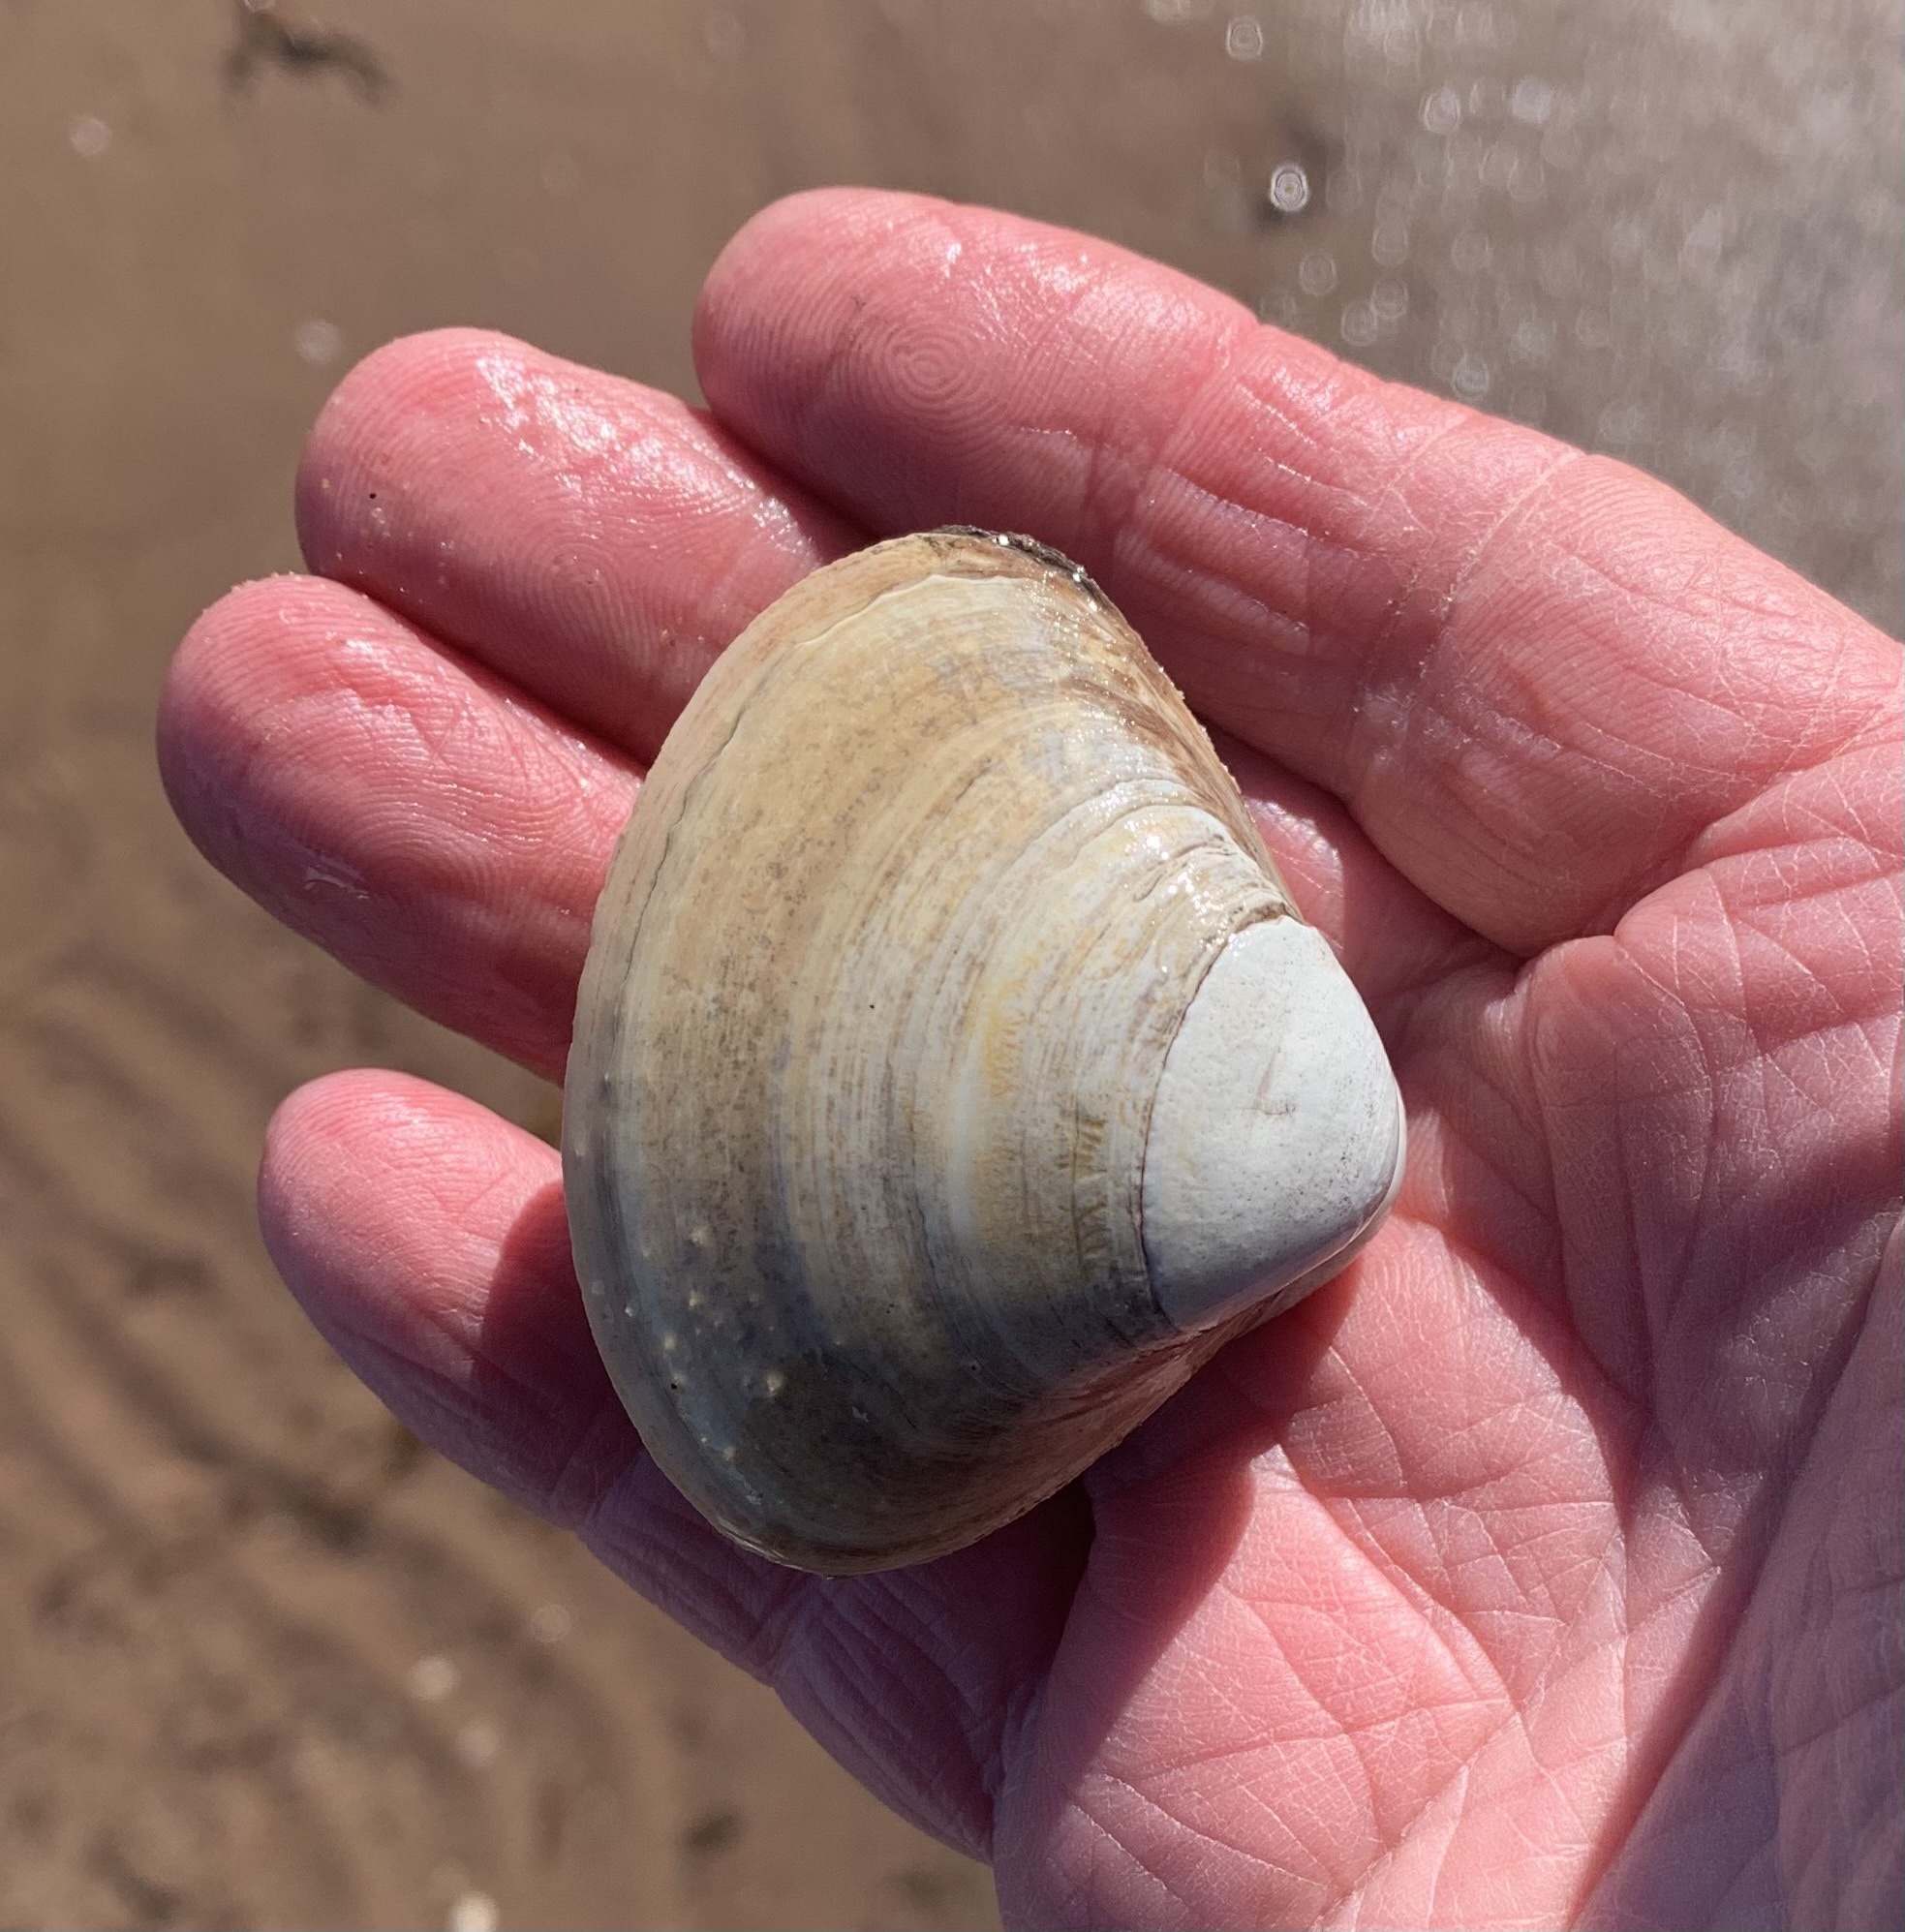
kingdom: Animalia
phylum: Mollusca
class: Bivalvia
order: Venerida
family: Mactridae
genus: Spisula
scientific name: Spisula solidissima
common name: Atlantic surf clam
